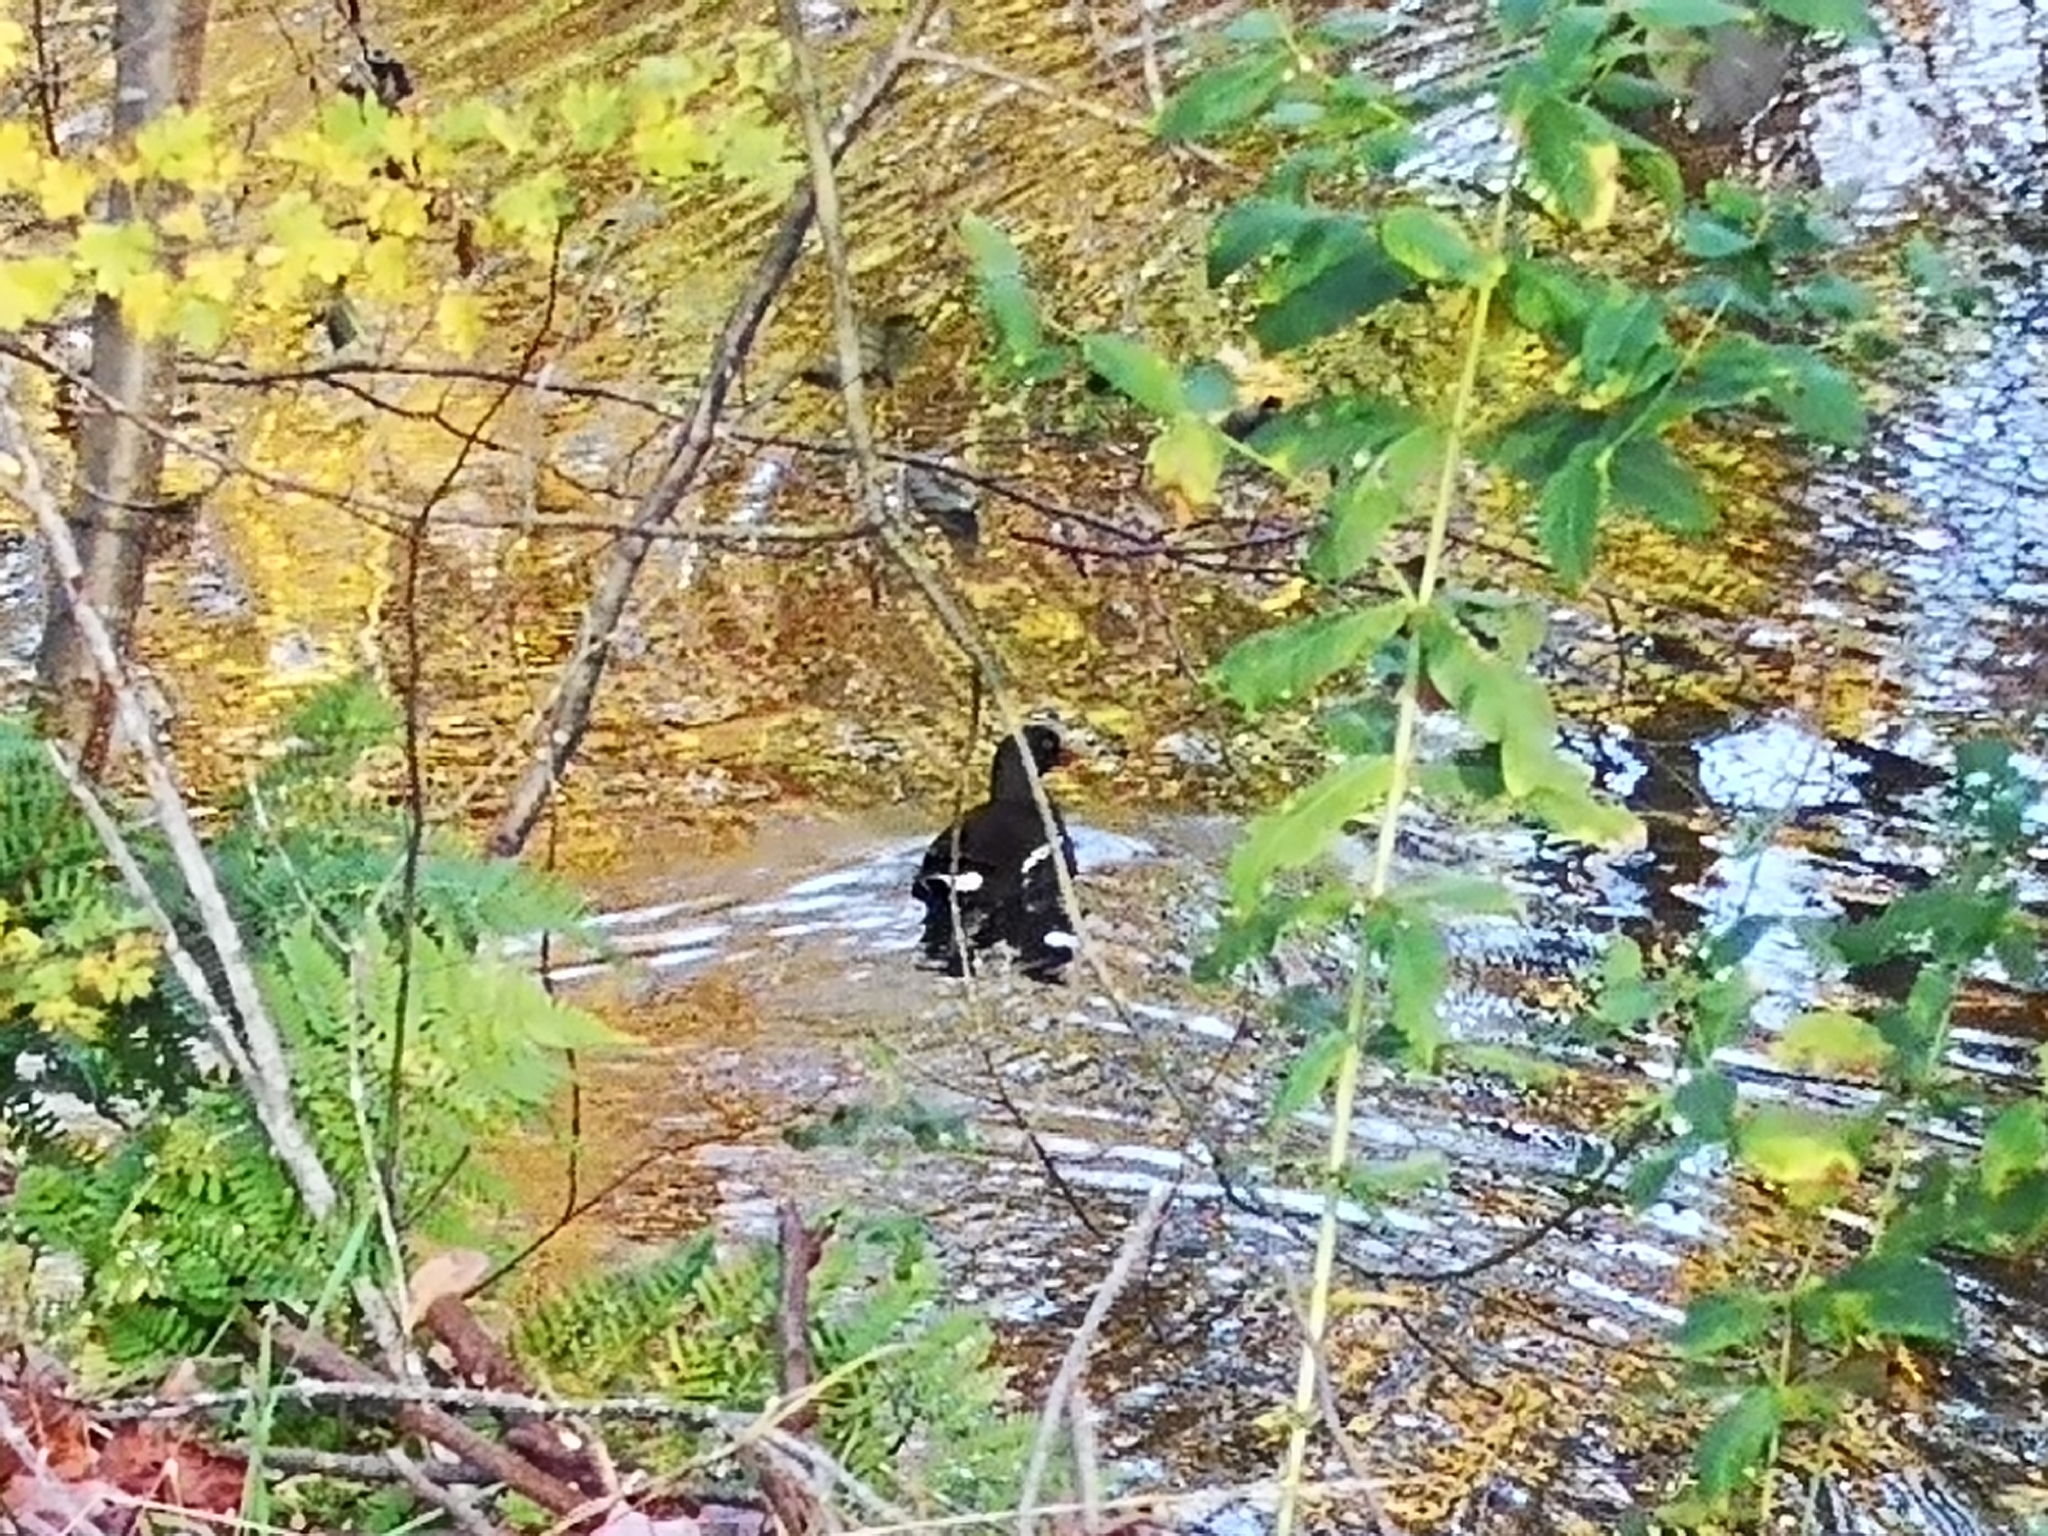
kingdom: Animalia
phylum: Chordata
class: Aves
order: Gruiformes
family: Rallidae
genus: Gallinula
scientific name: Gallinula chloropus
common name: Common moorhen
